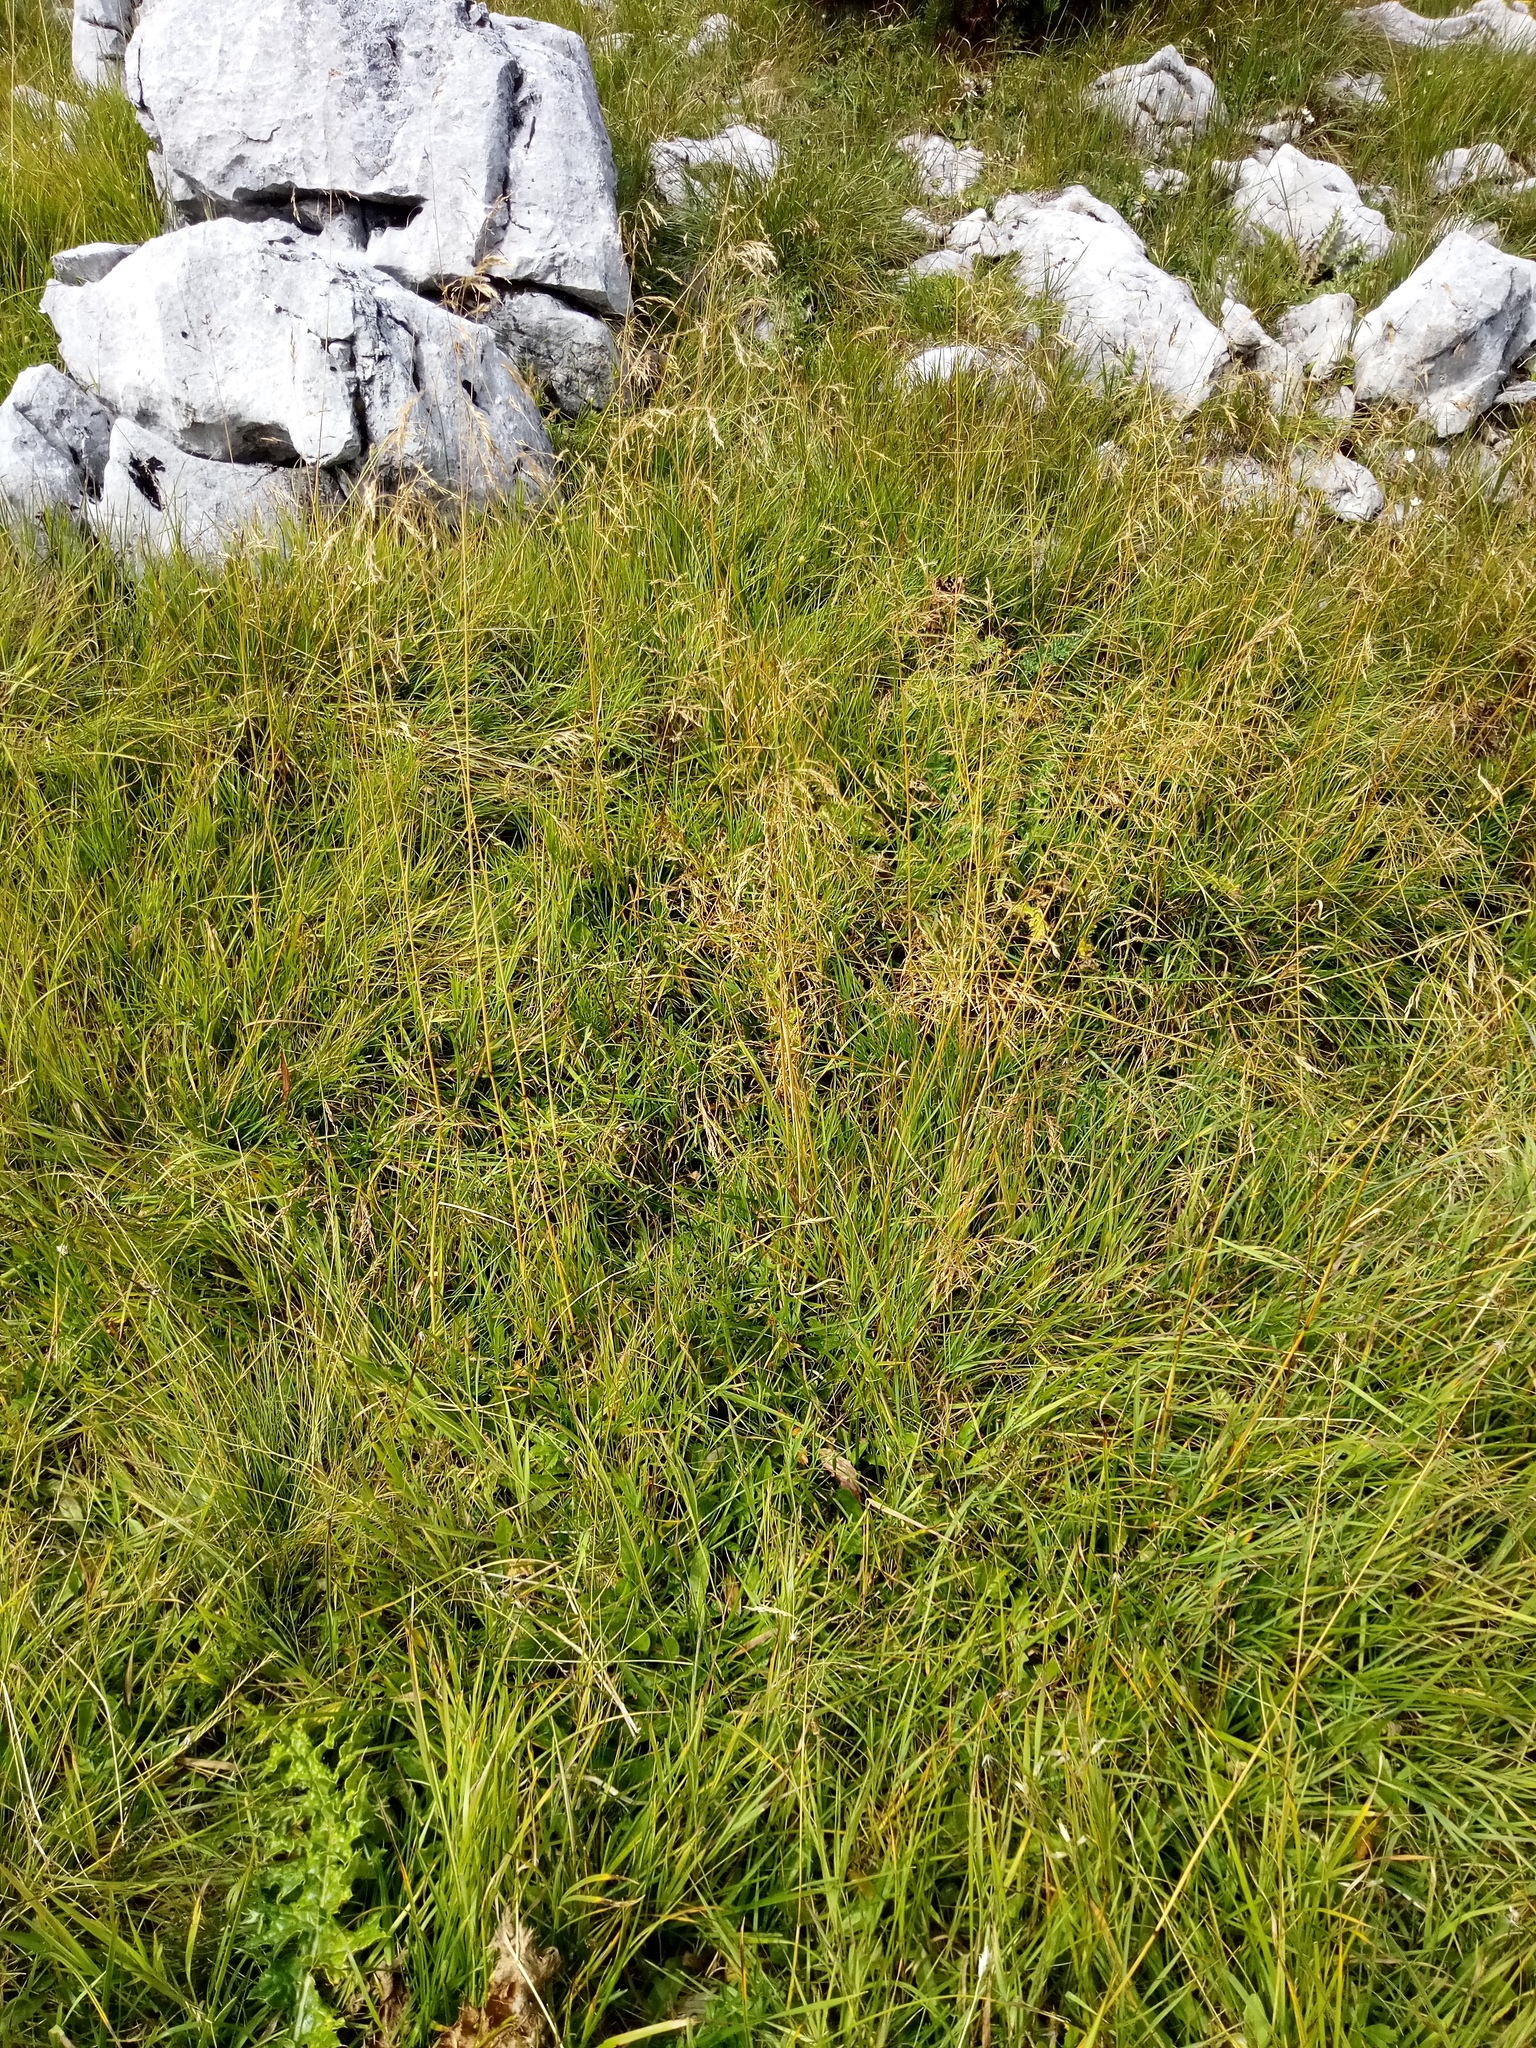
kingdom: Plantae
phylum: Tracheophyta
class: Liliopsida
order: Poales
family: Poaceae
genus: Deschampsia
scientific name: Deschampsia cespitosa
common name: Tufted hair-grass
